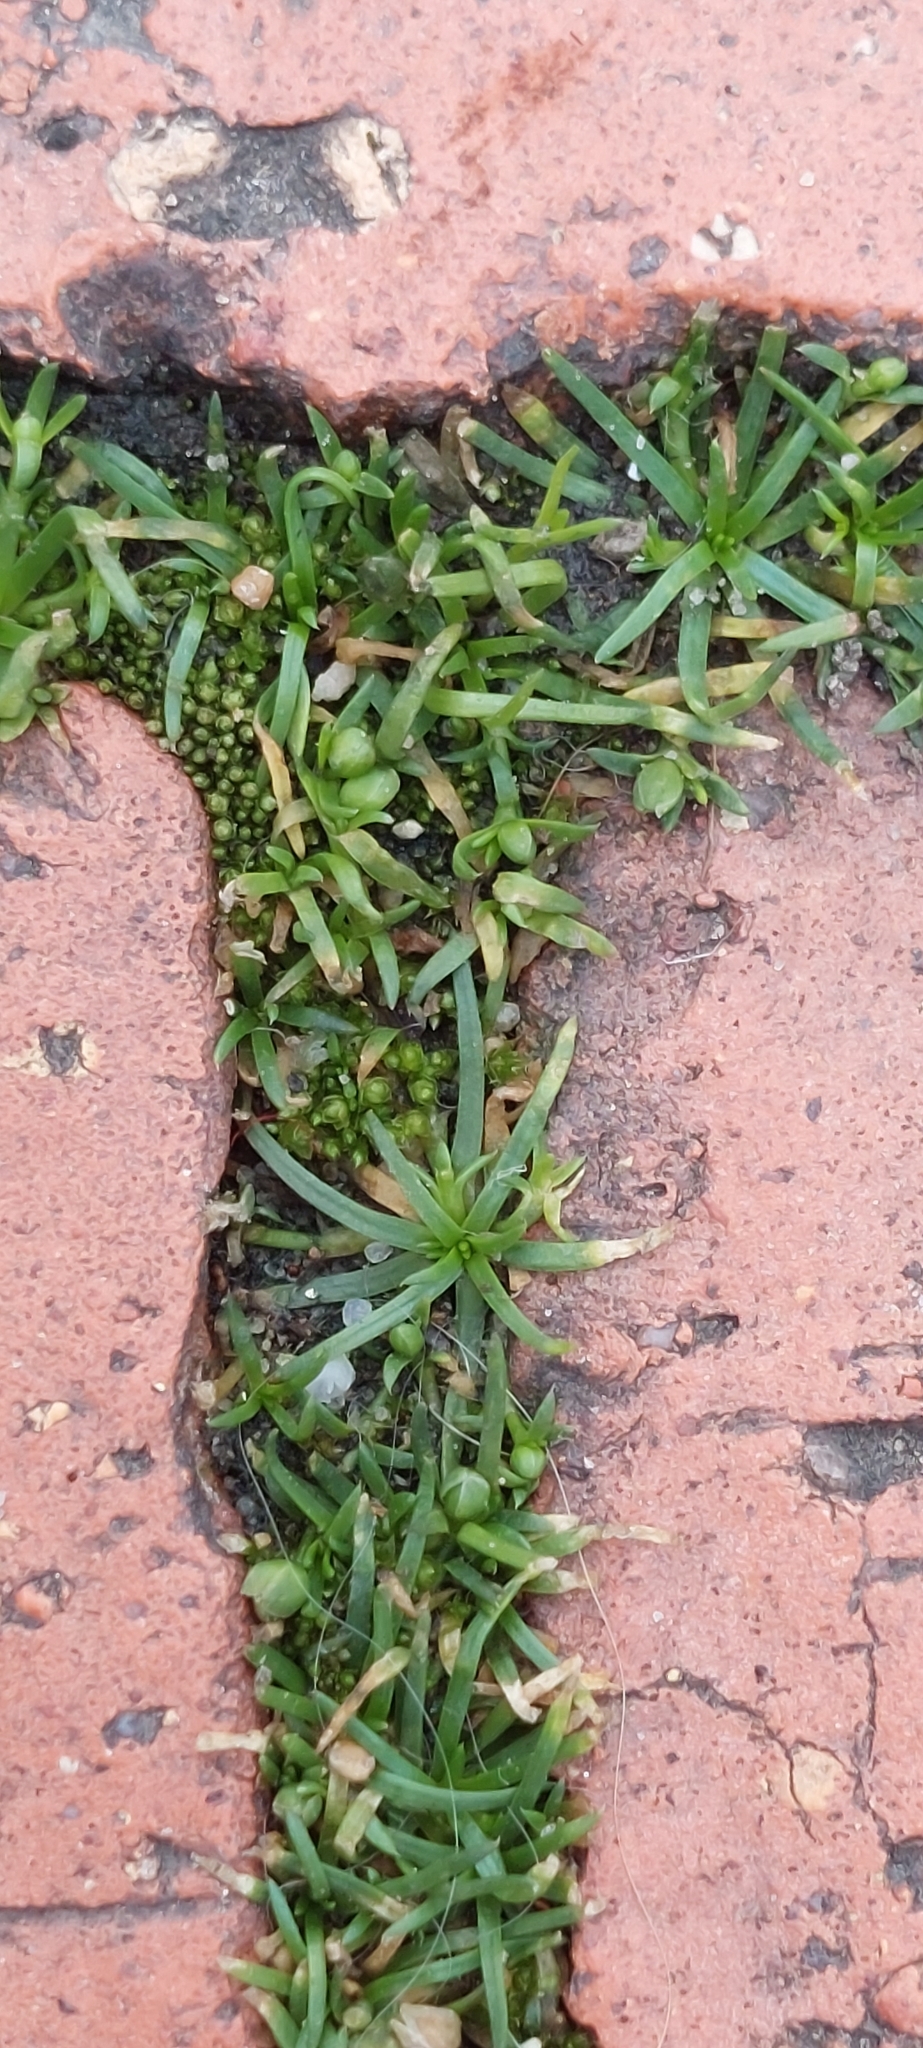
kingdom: Plantae
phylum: Tracheophyta
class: Magnoliopsida
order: Caryophyllales
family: Caryophyllaceae
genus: Sagina
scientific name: Sagina procumbens
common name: Procumbent pearlwort
